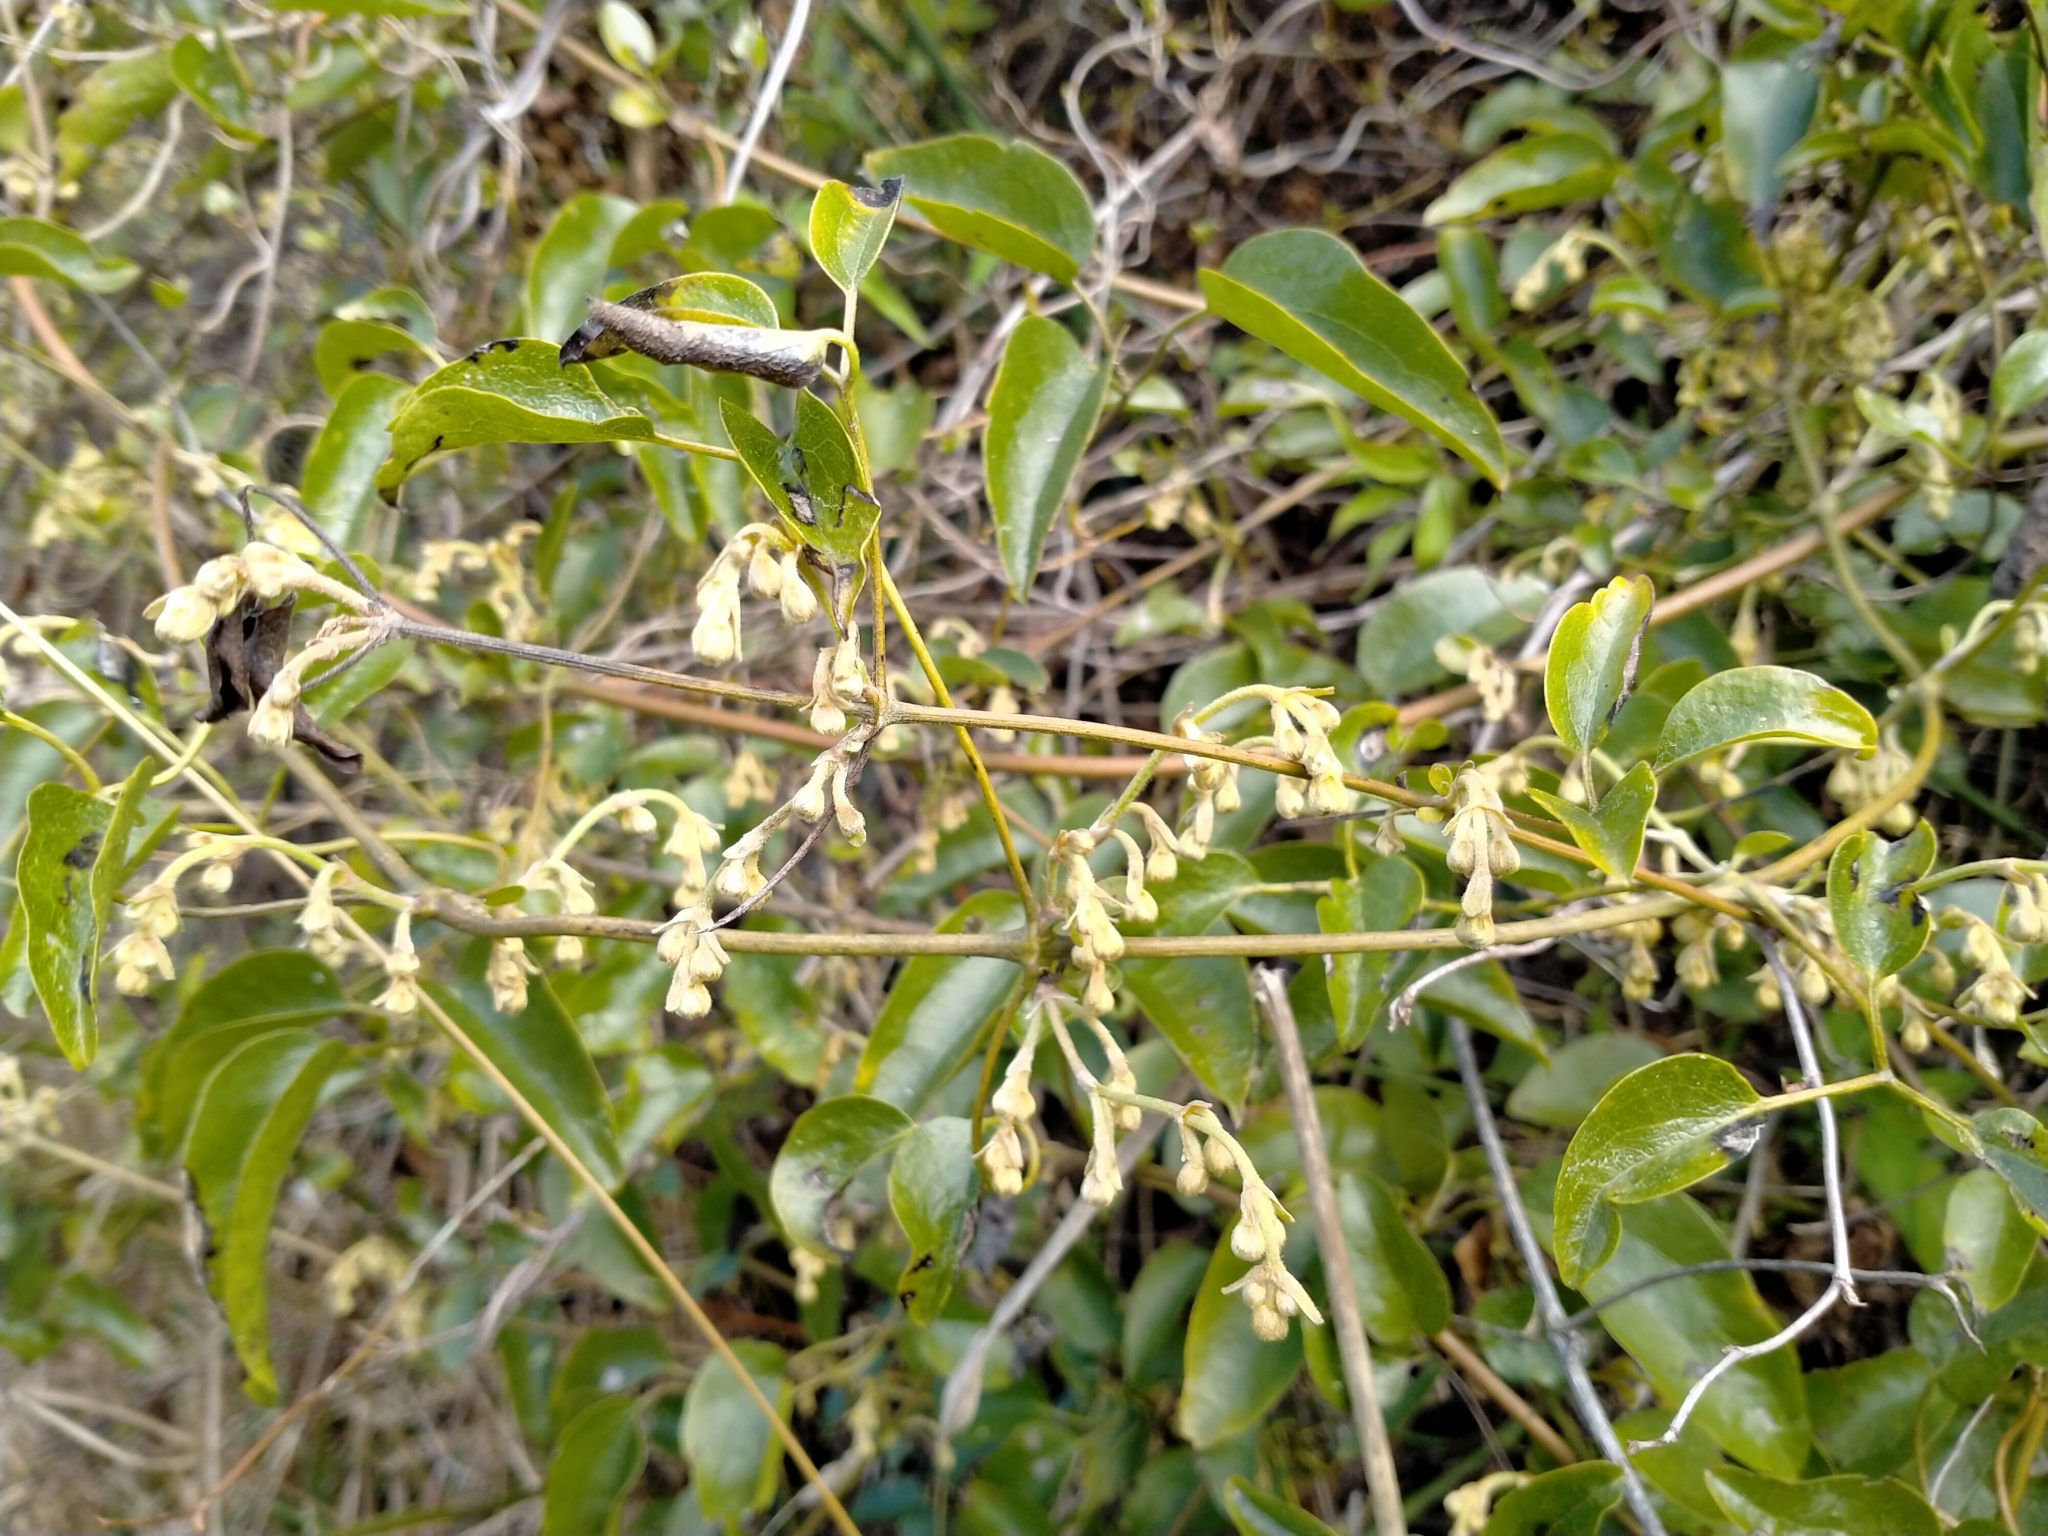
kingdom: Plantae
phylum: Tracheophyta
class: Magnoliopsida
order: Ranunculales
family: Ranunculaceae
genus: Clematis
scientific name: Clematis foetida
